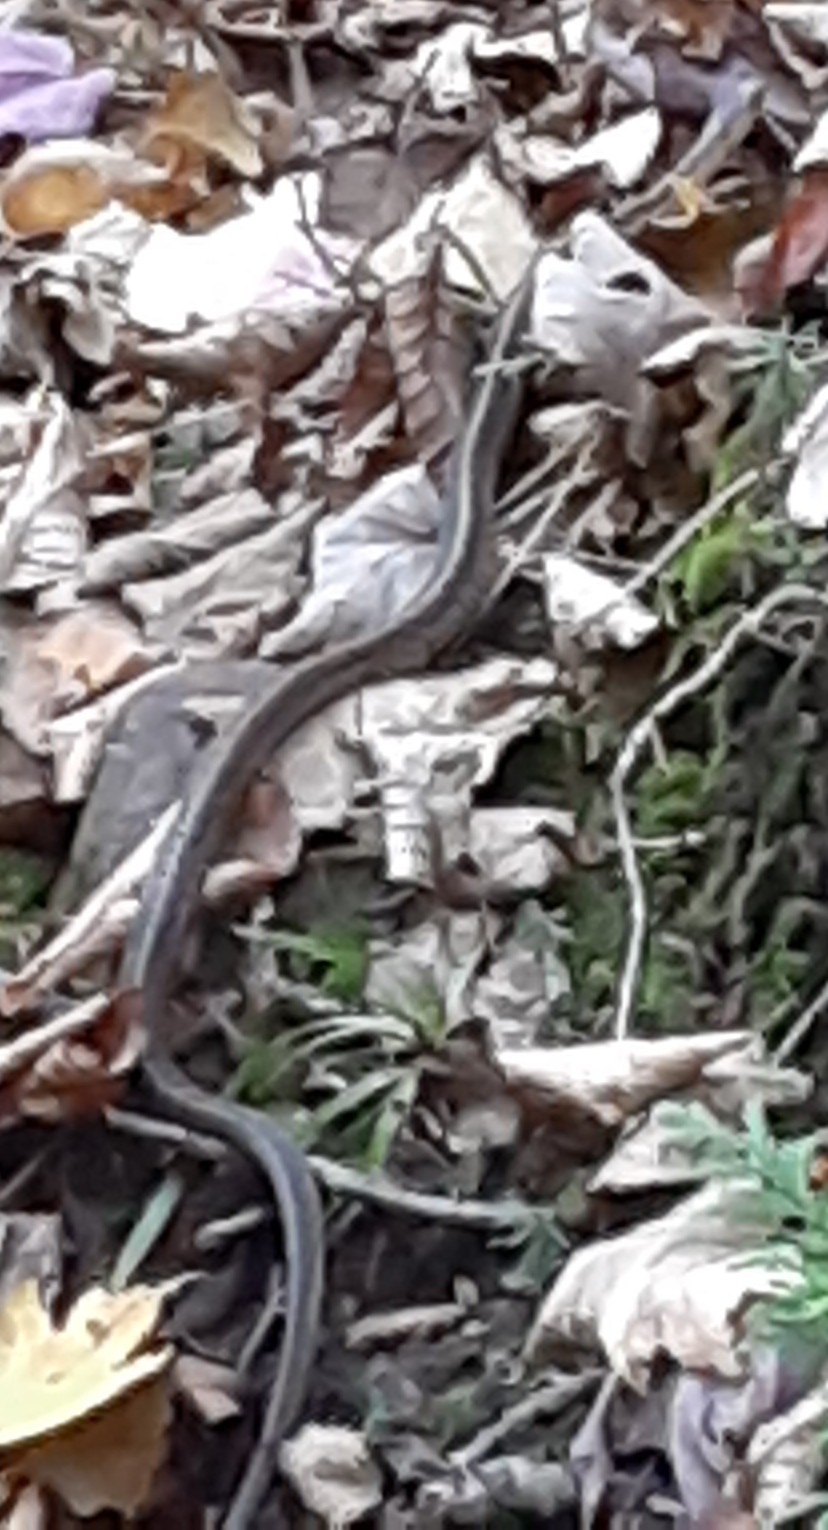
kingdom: Animalia
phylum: Chordata
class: Squamata
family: Colubridae
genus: Thamnophis
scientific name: Thamnophis sirtalis
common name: Common garter snake
